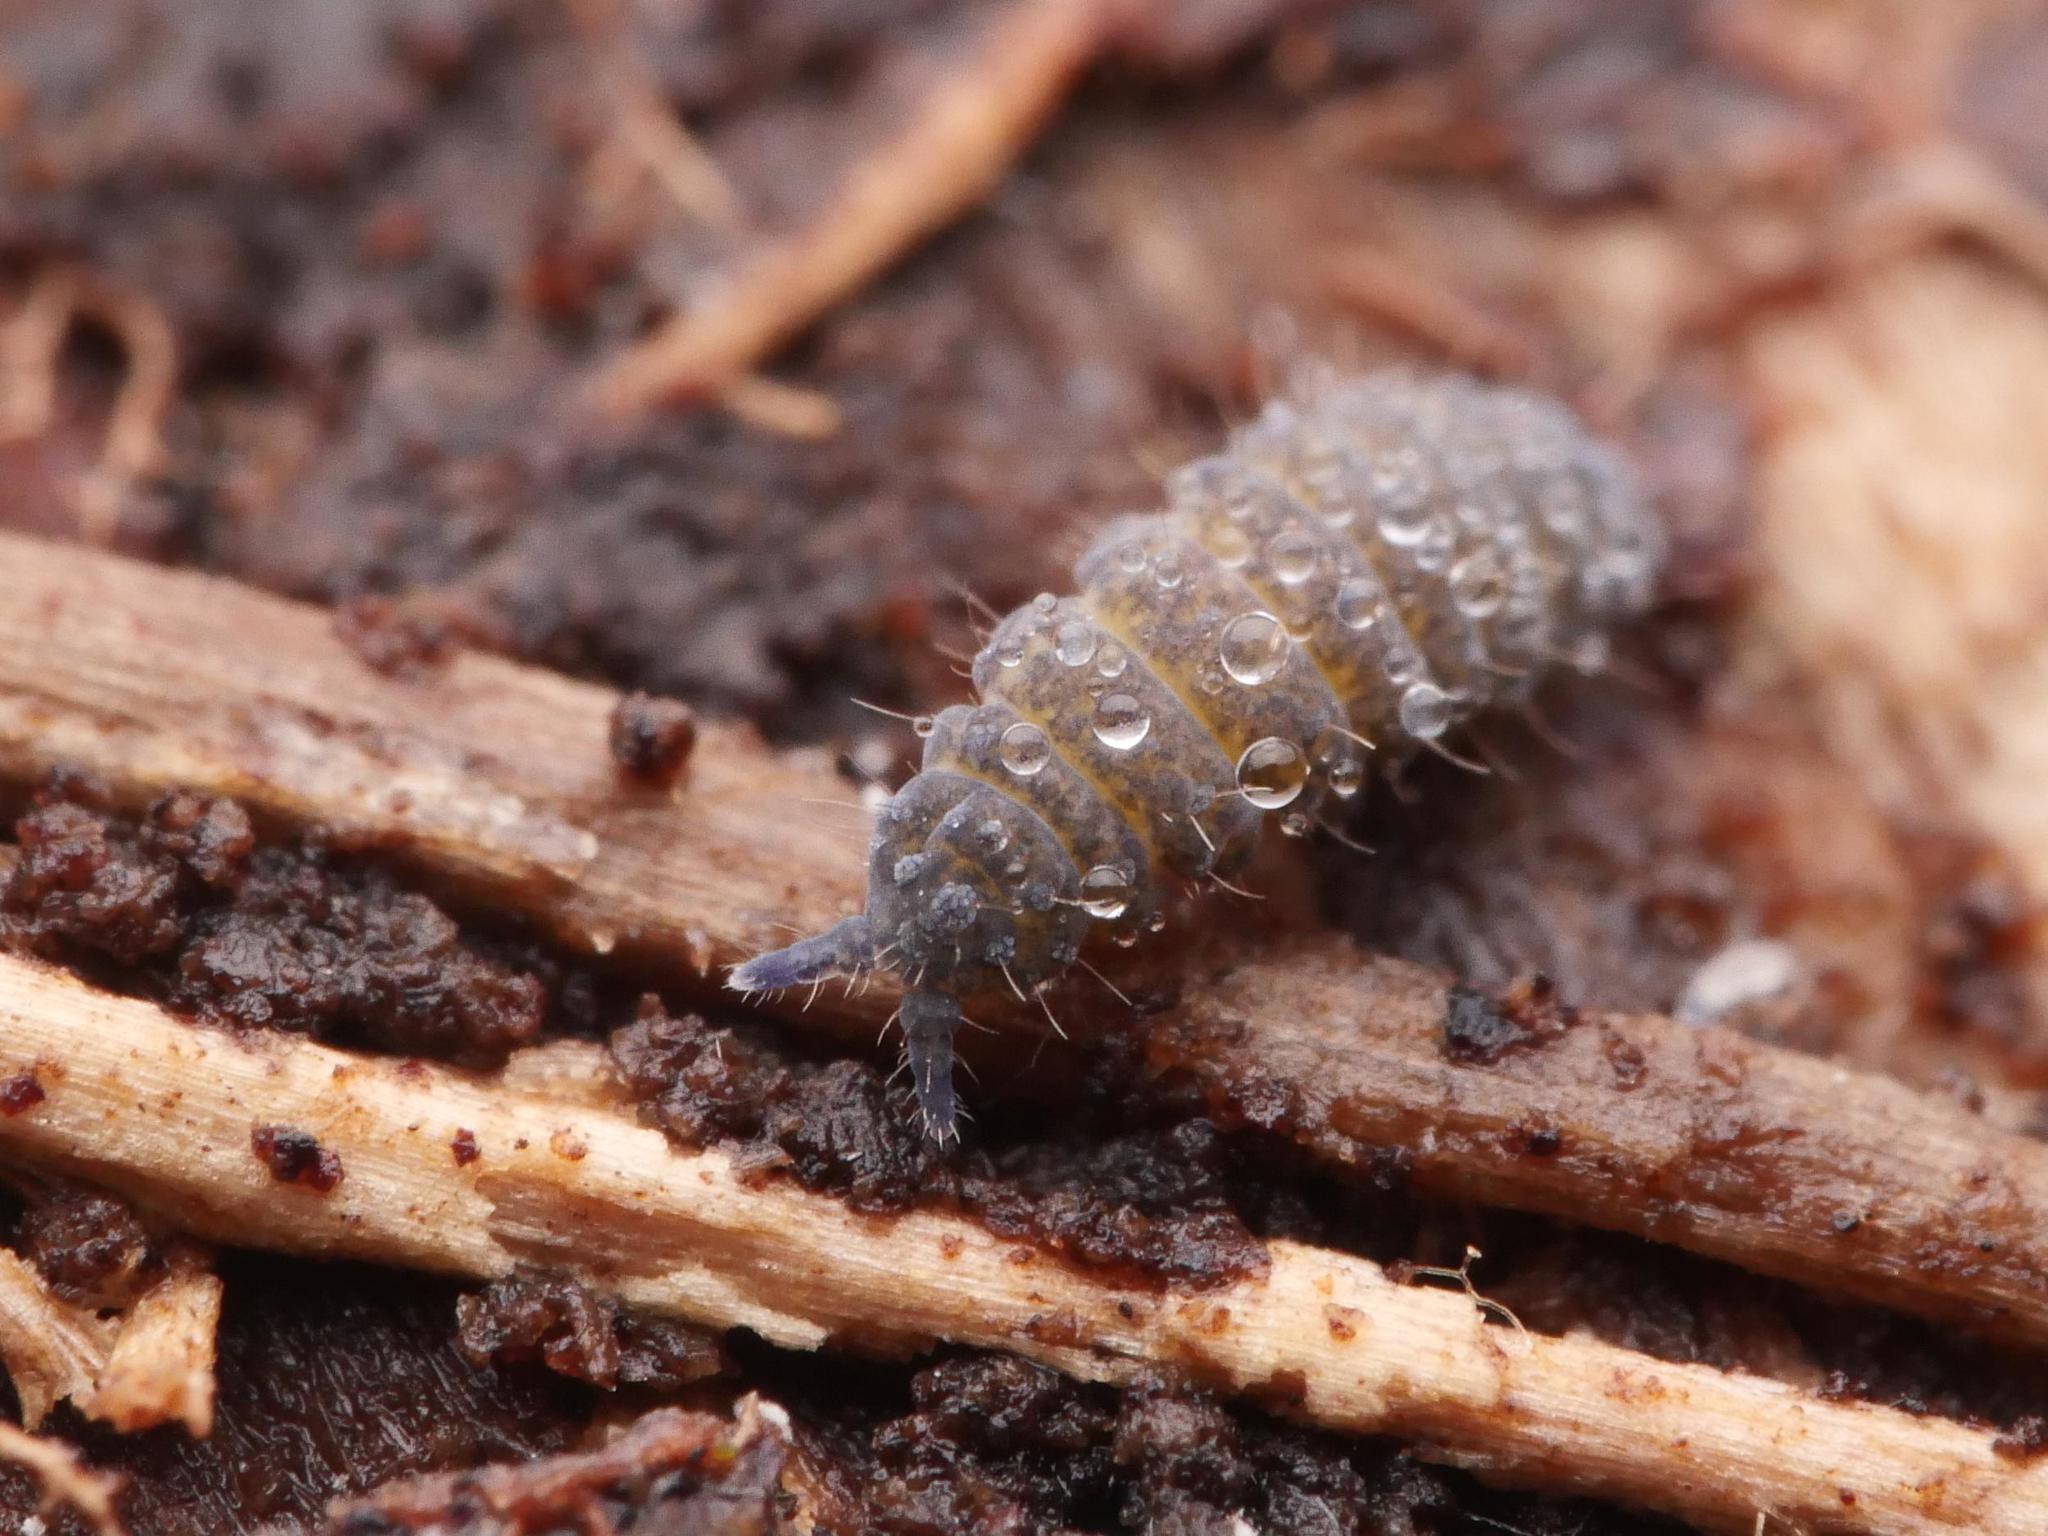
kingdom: Animalia
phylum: Arthropoda
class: Collembola
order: Poduromorpha
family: Neanuridae
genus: Neanura
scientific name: Neanura muscorum
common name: Springtail
